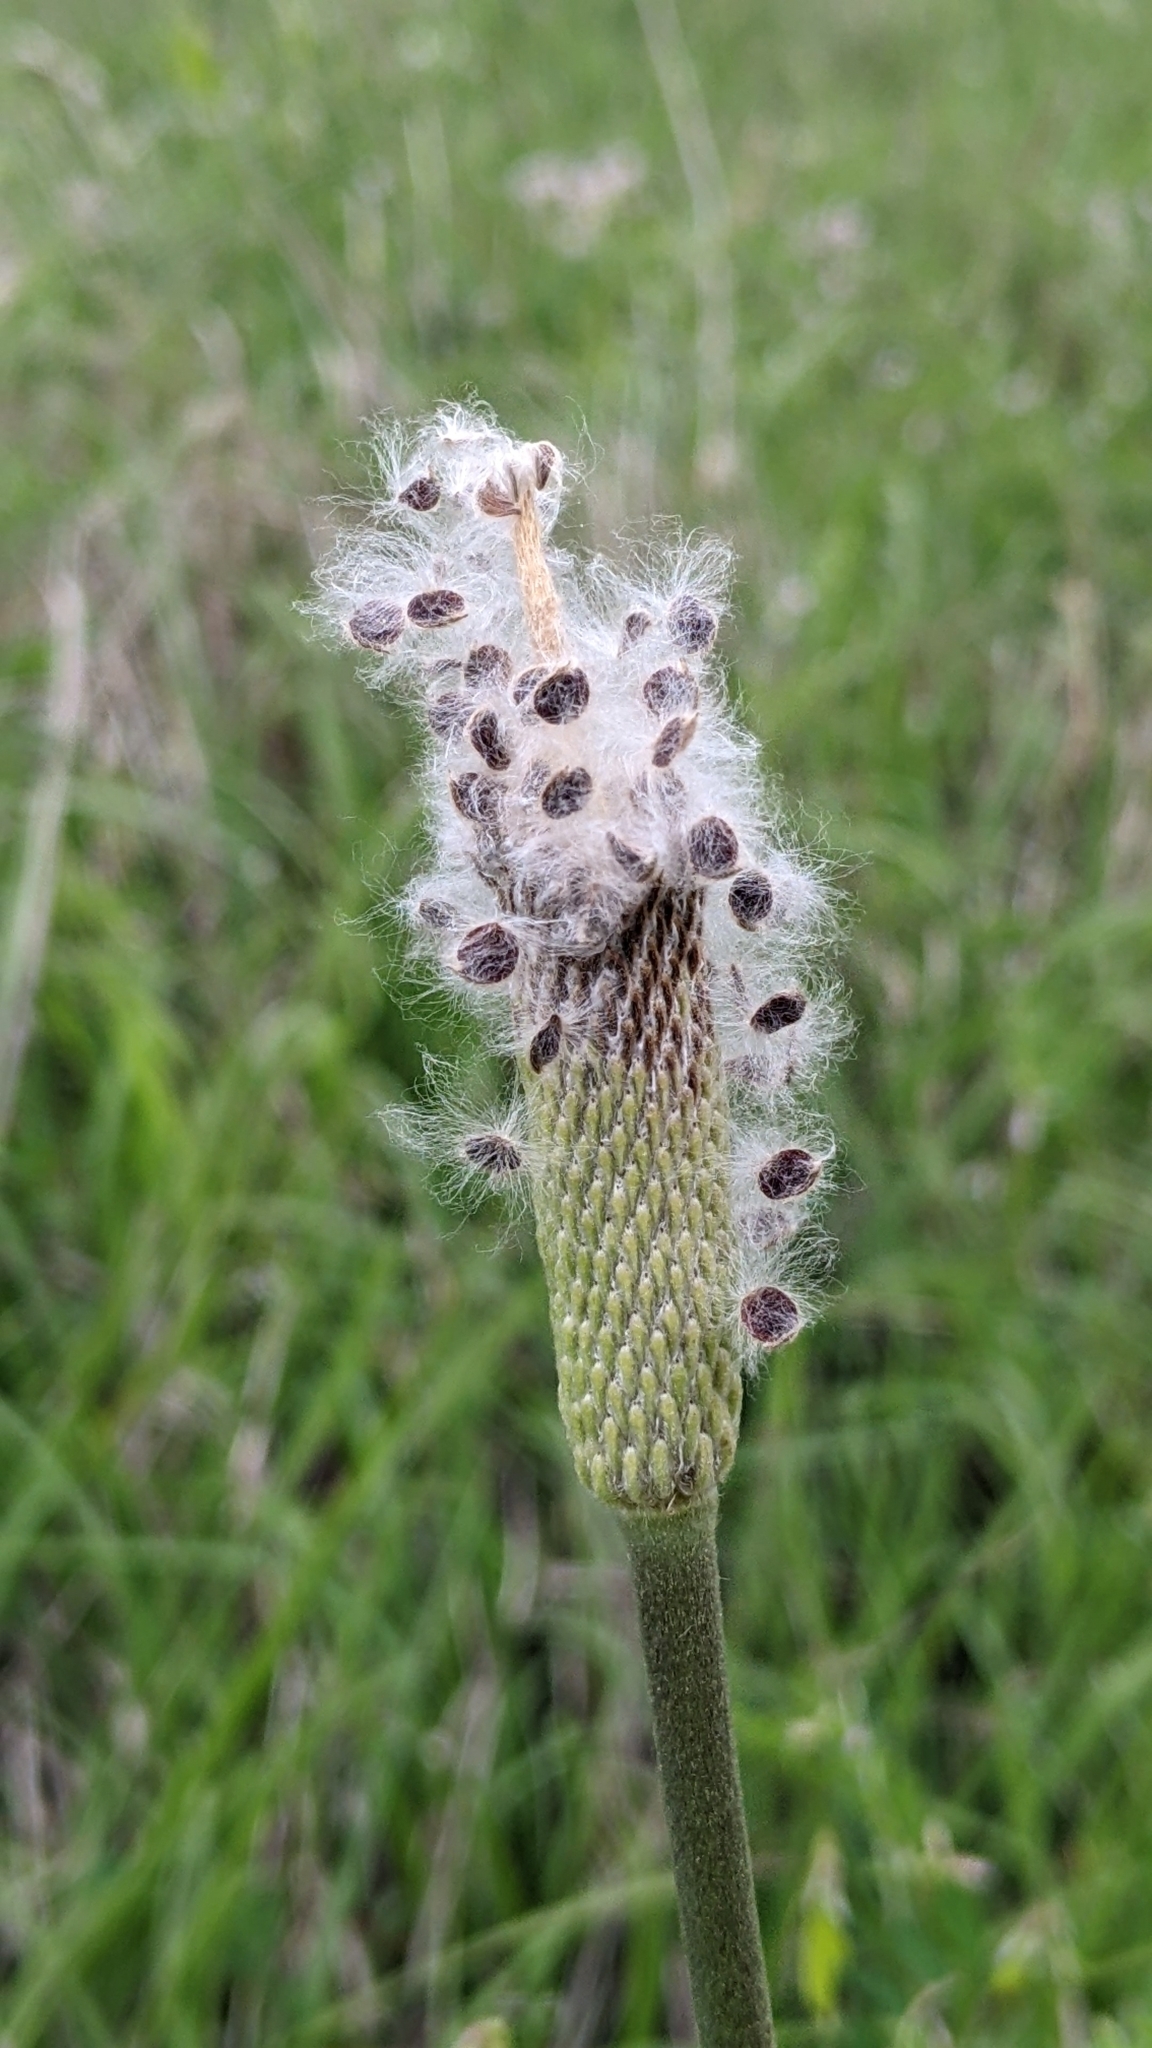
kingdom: Plantae
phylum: Tracheophyta
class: Magnoliopsida
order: Ranunculales
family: Ranunculaceae
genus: Anemone
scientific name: Anemone berlandieri
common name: Ten-petal anemone
